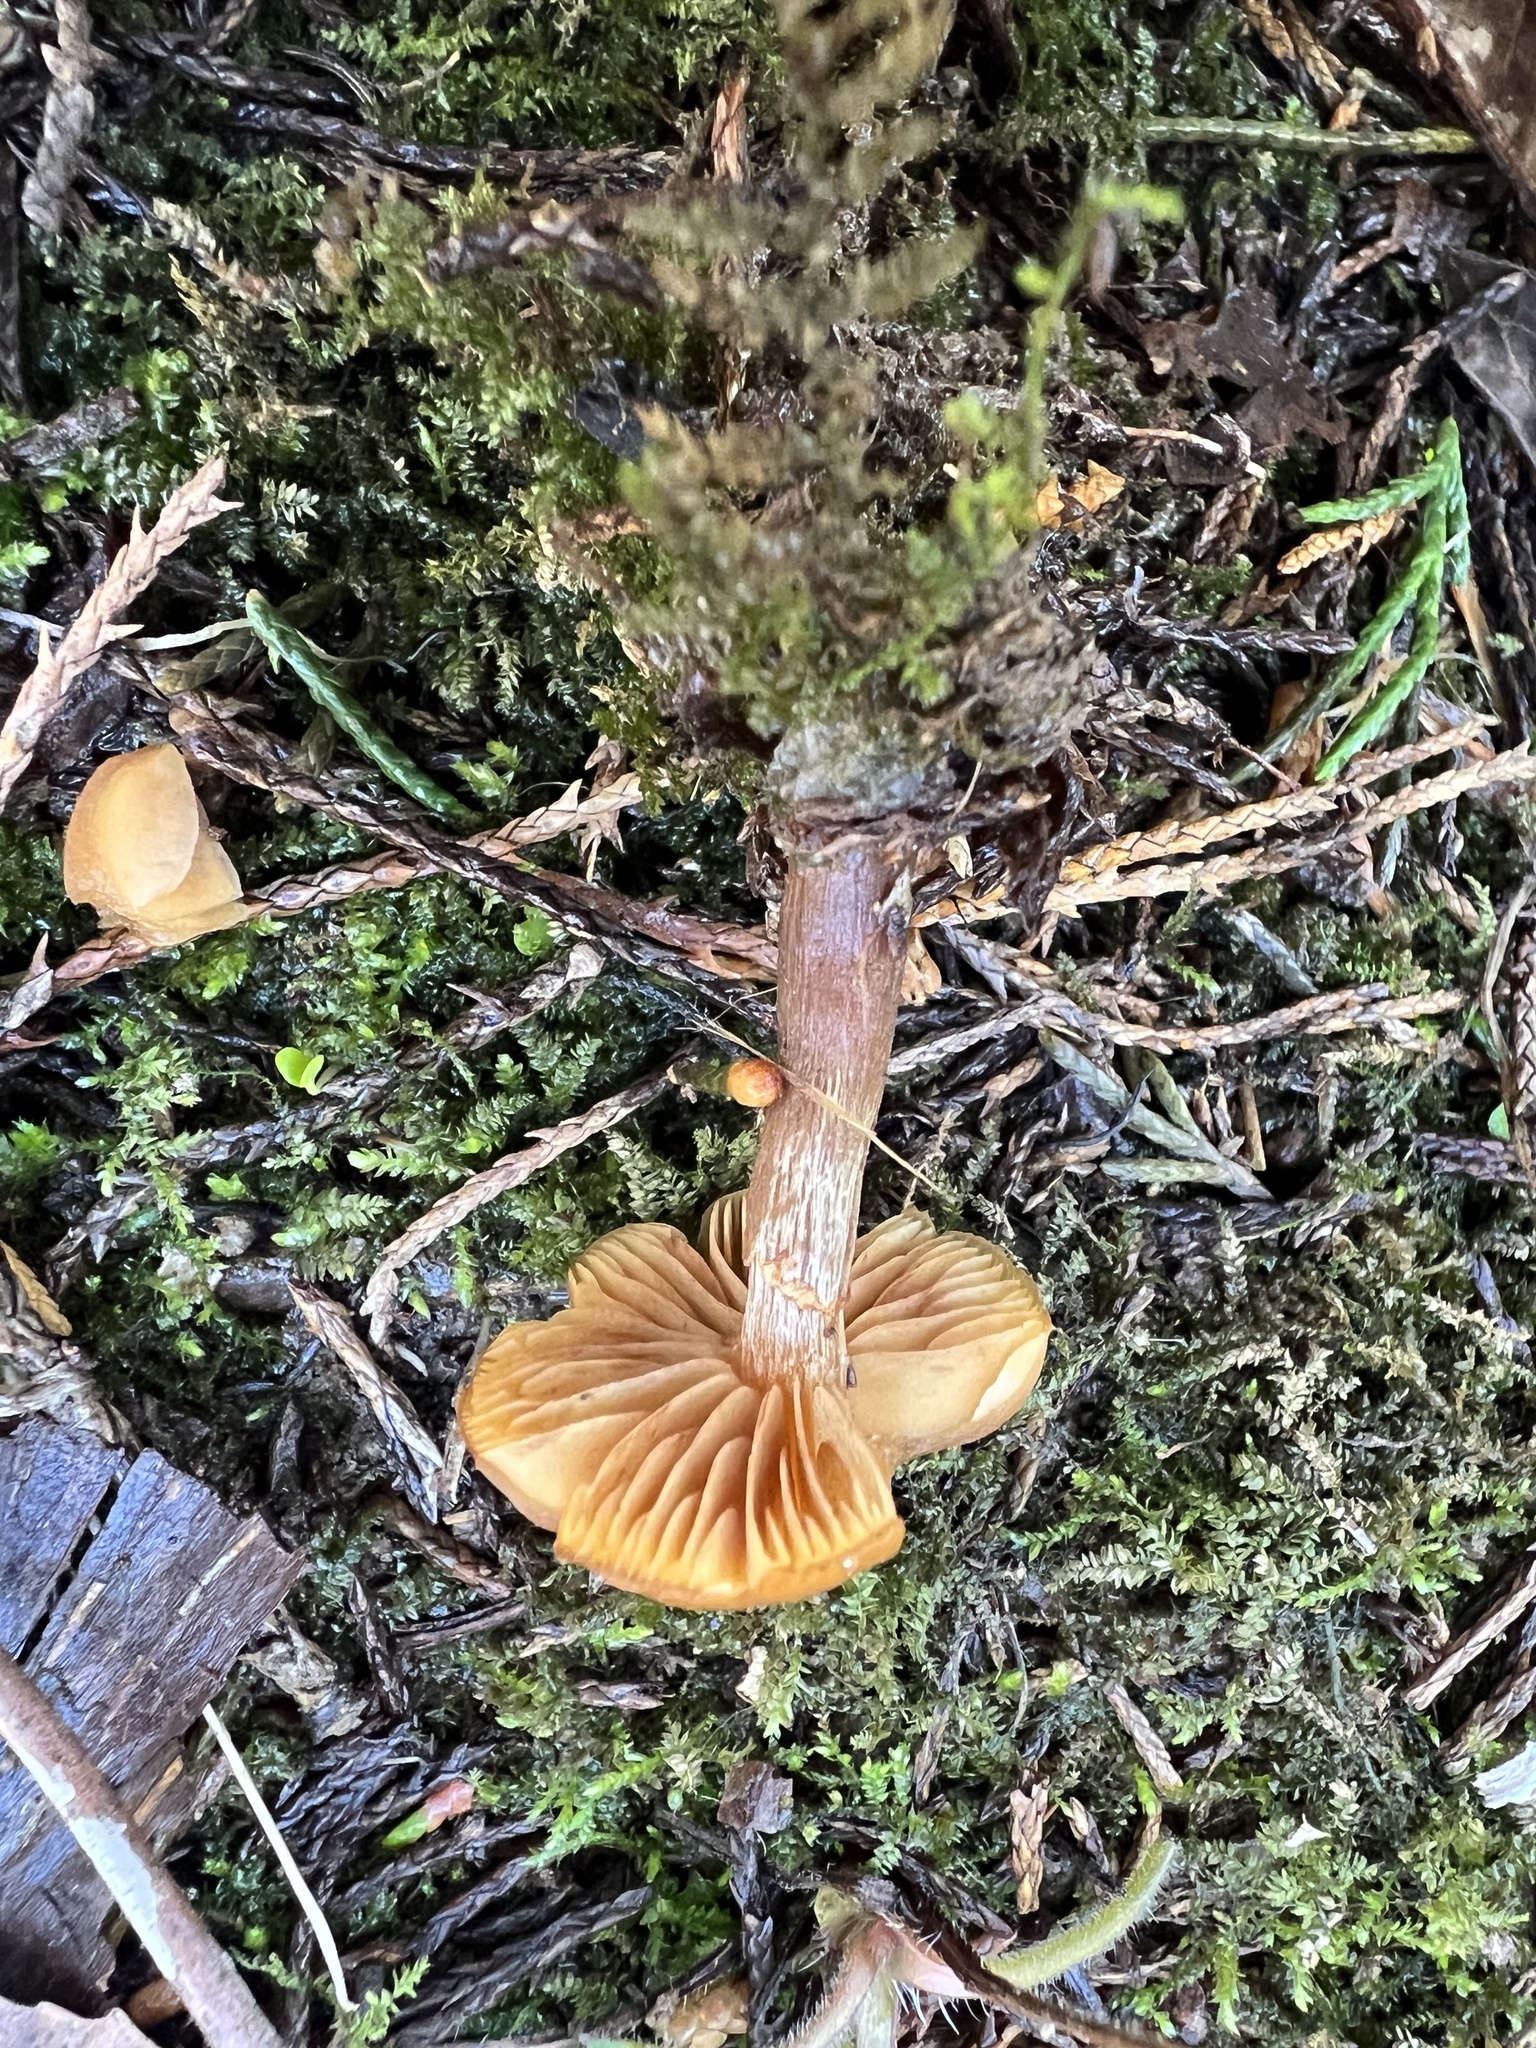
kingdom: Fungi
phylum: Basidiomycota
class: Agaricomycetes
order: Agaricales
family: Hymenogastraceae
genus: Galerina
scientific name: Galerina marginata
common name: Funeral bell
